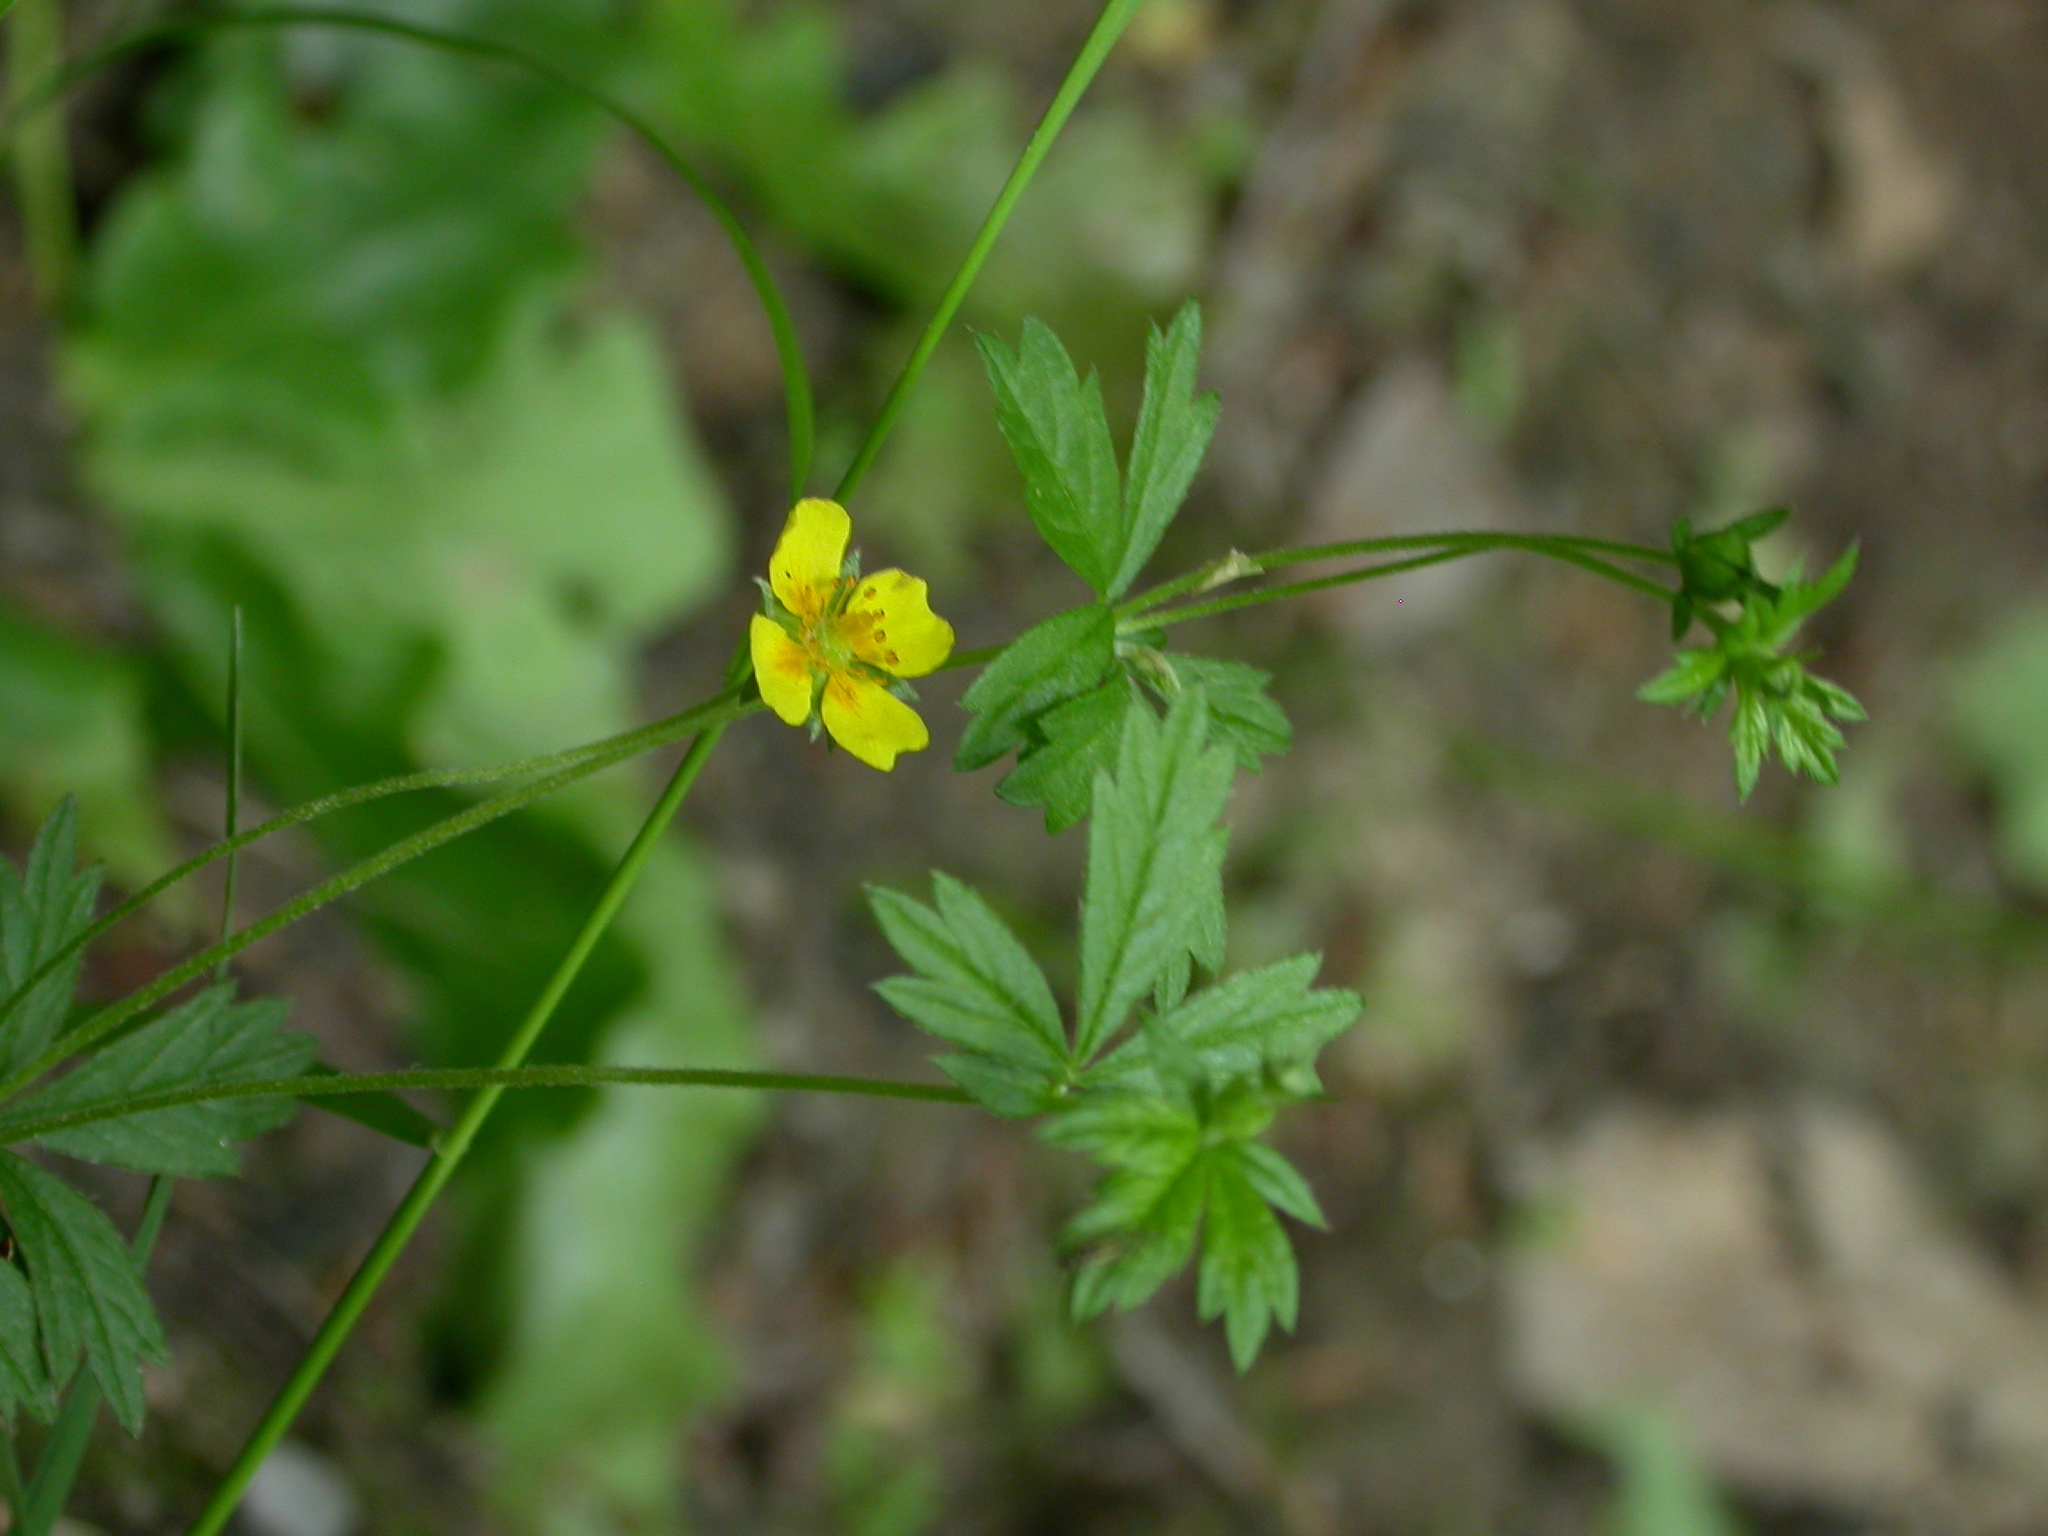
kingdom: Plantae
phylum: Tracheophyta
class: Magnoliopsida
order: Rosales
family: Rosaceae
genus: Potentilla
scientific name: Potentilla erecta
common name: Tormentil
